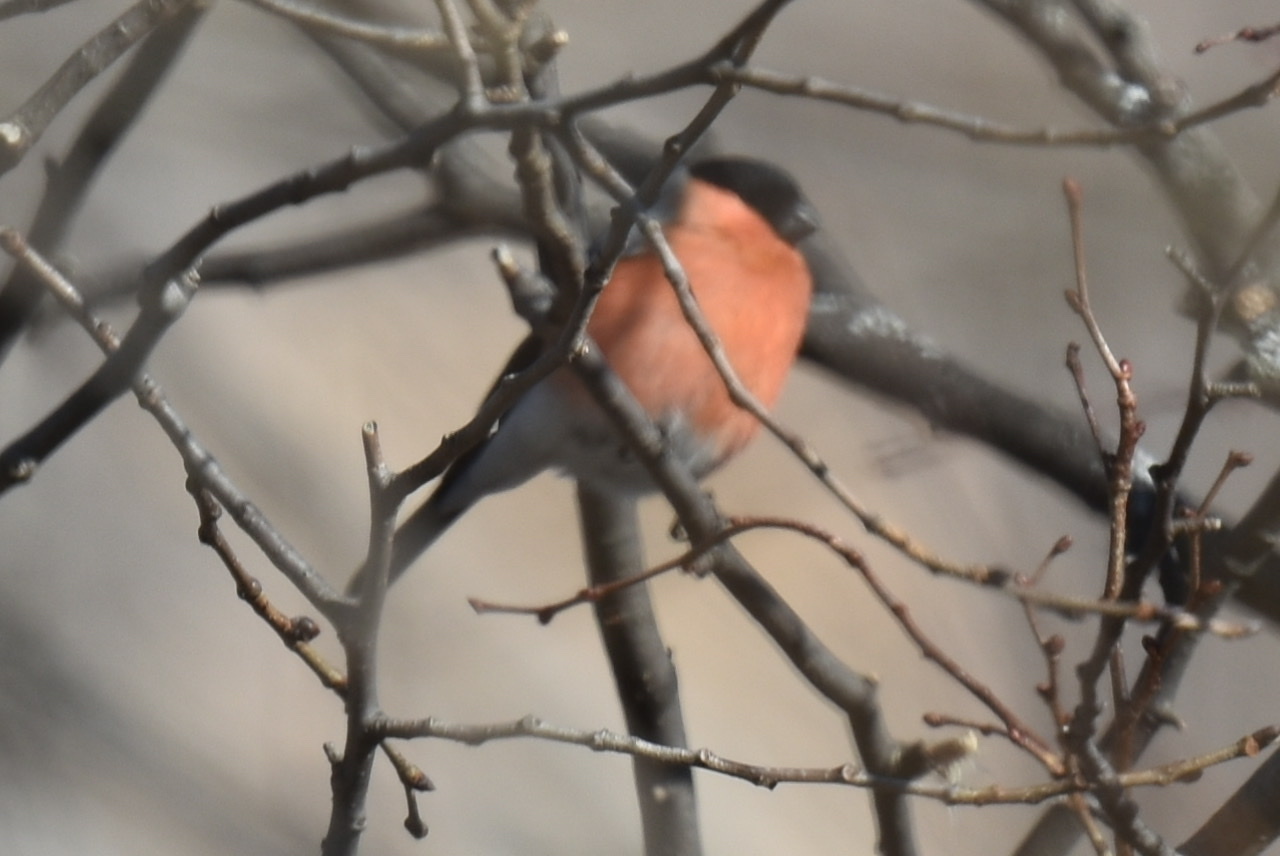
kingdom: Animalia
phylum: Chordata
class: Aves
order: Passeriformes
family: Fringillidae
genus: Pyrrhula
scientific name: Pyrrhula pyrrhula
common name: Eurasian bullfinch
